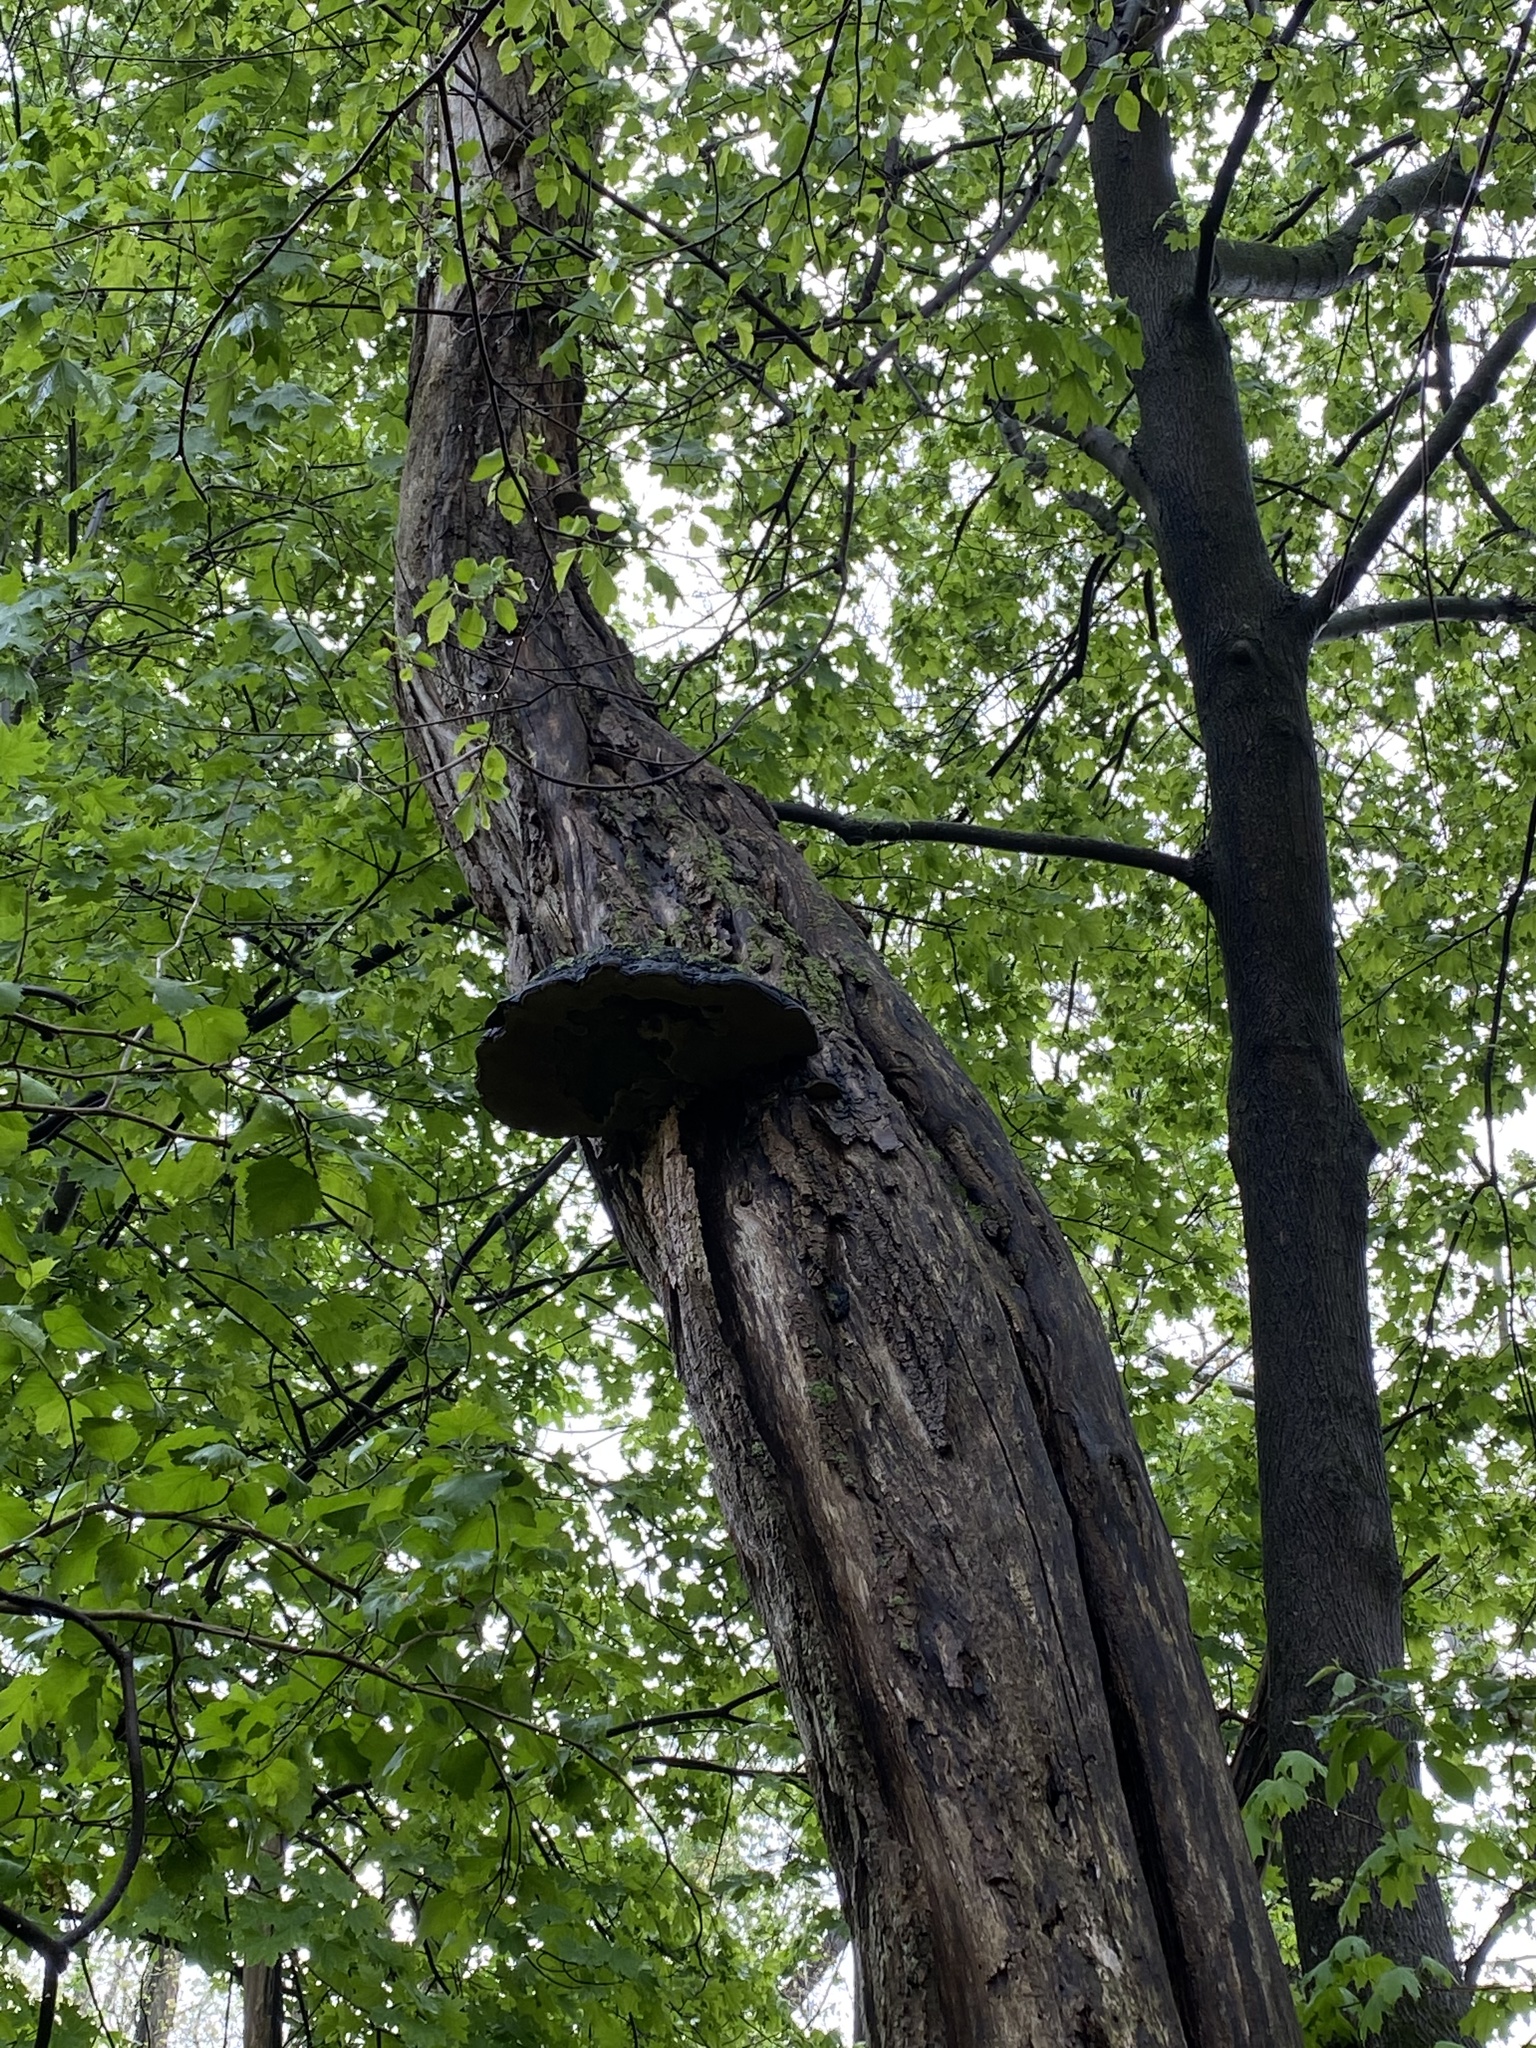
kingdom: Fungi
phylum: Basidiomycota
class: Agaricomycetes
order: Hymenochaetales
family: Hymenochaetaceae
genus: Phellinus
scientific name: Phellinus robiniae
